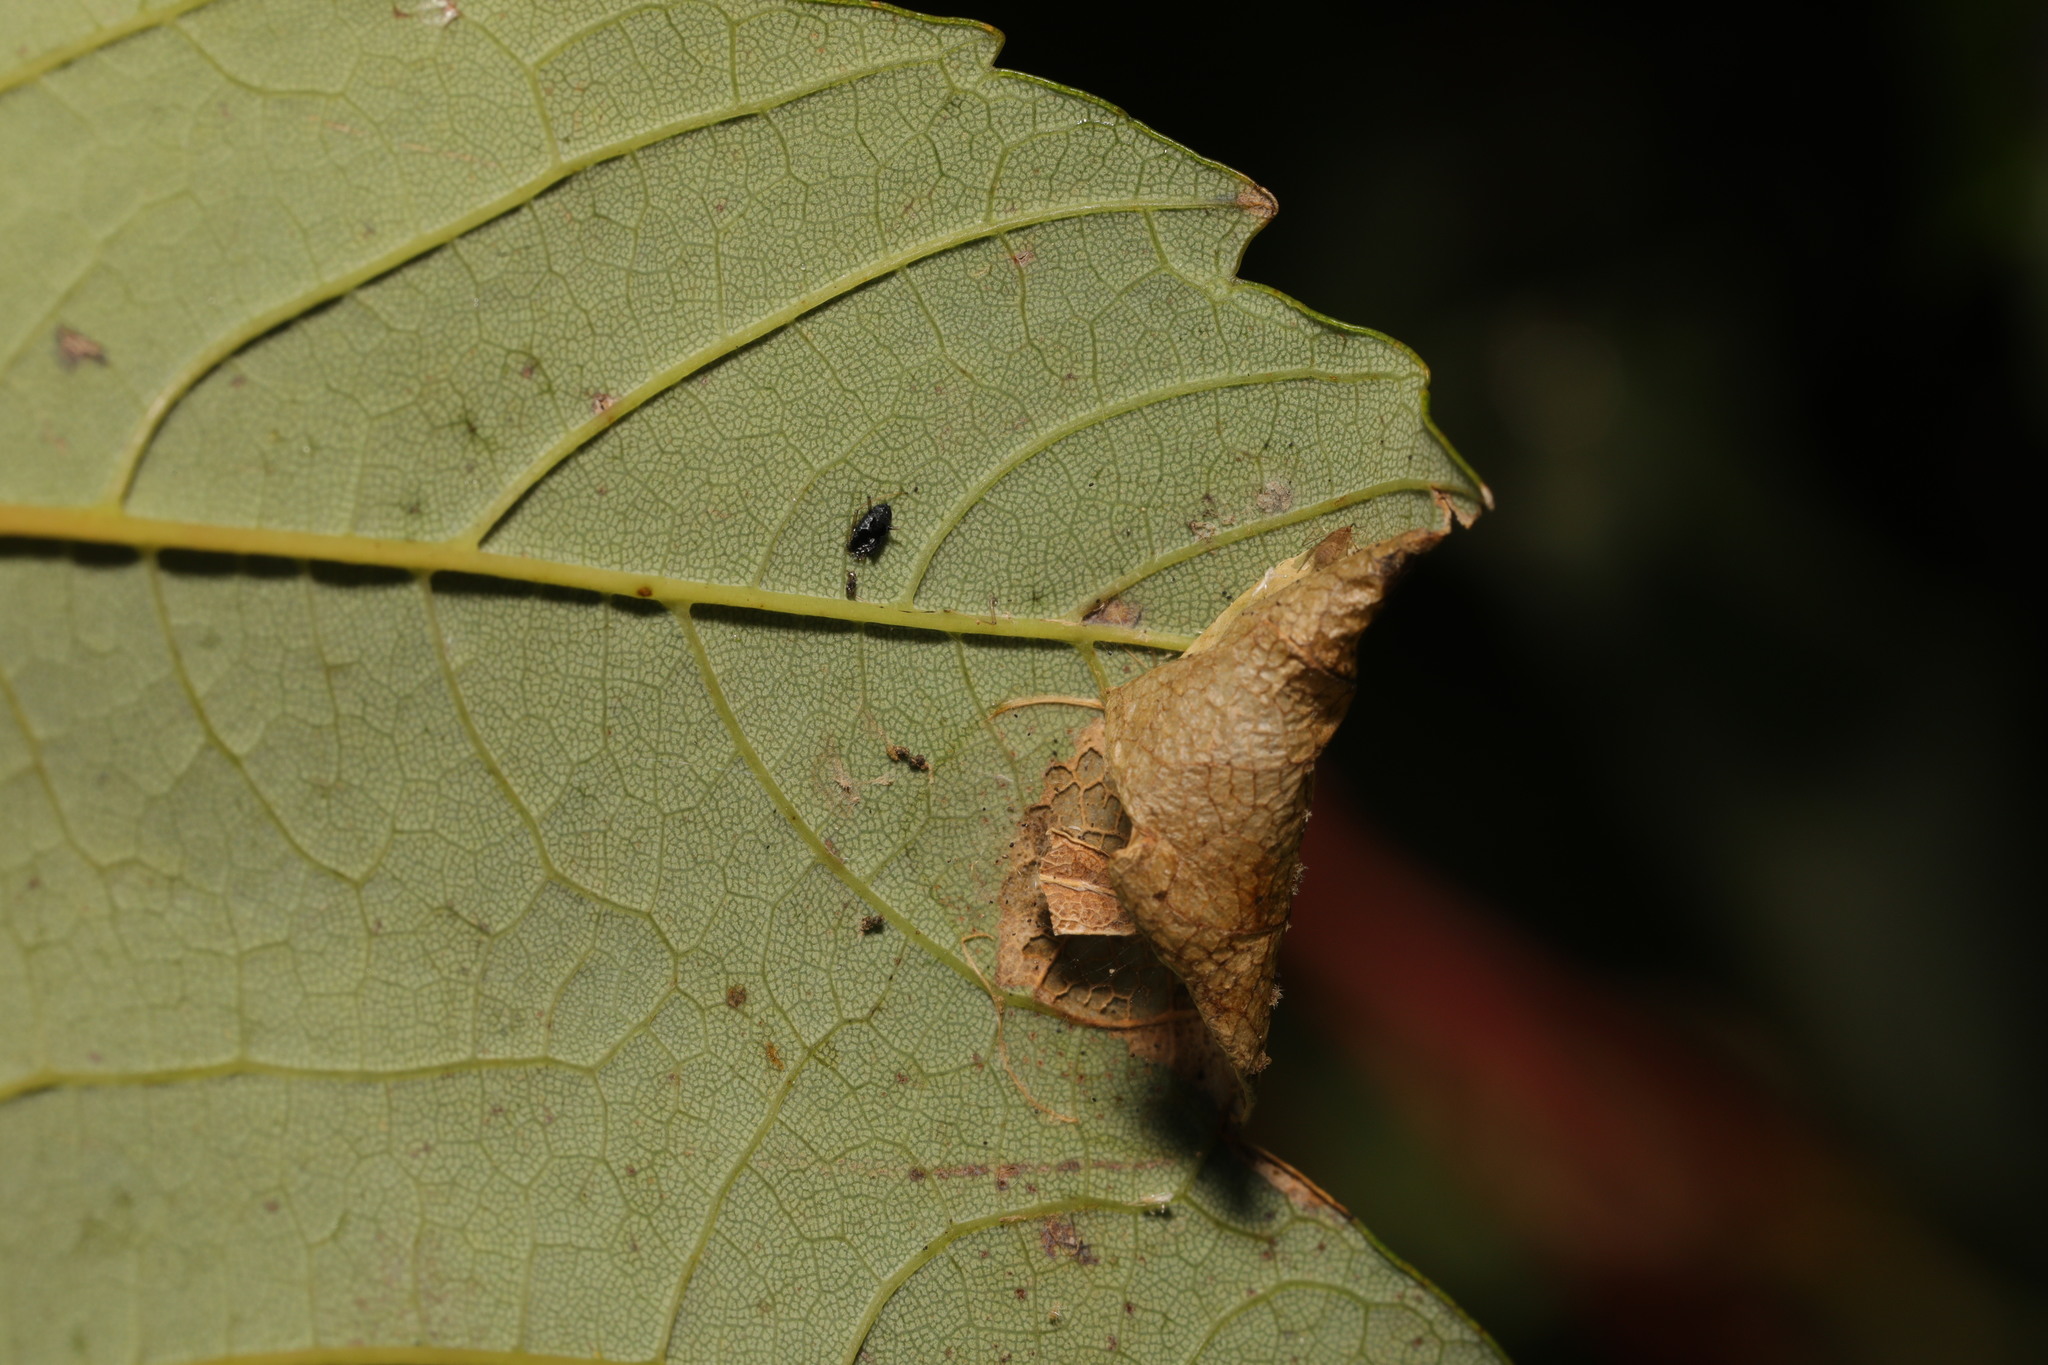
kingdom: Animalia
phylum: Arthropoda
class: Insecta
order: Lepidoptera
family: Gracillariidae
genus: Caloptilia
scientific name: Caloptilia rufipennella
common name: Small red slender
